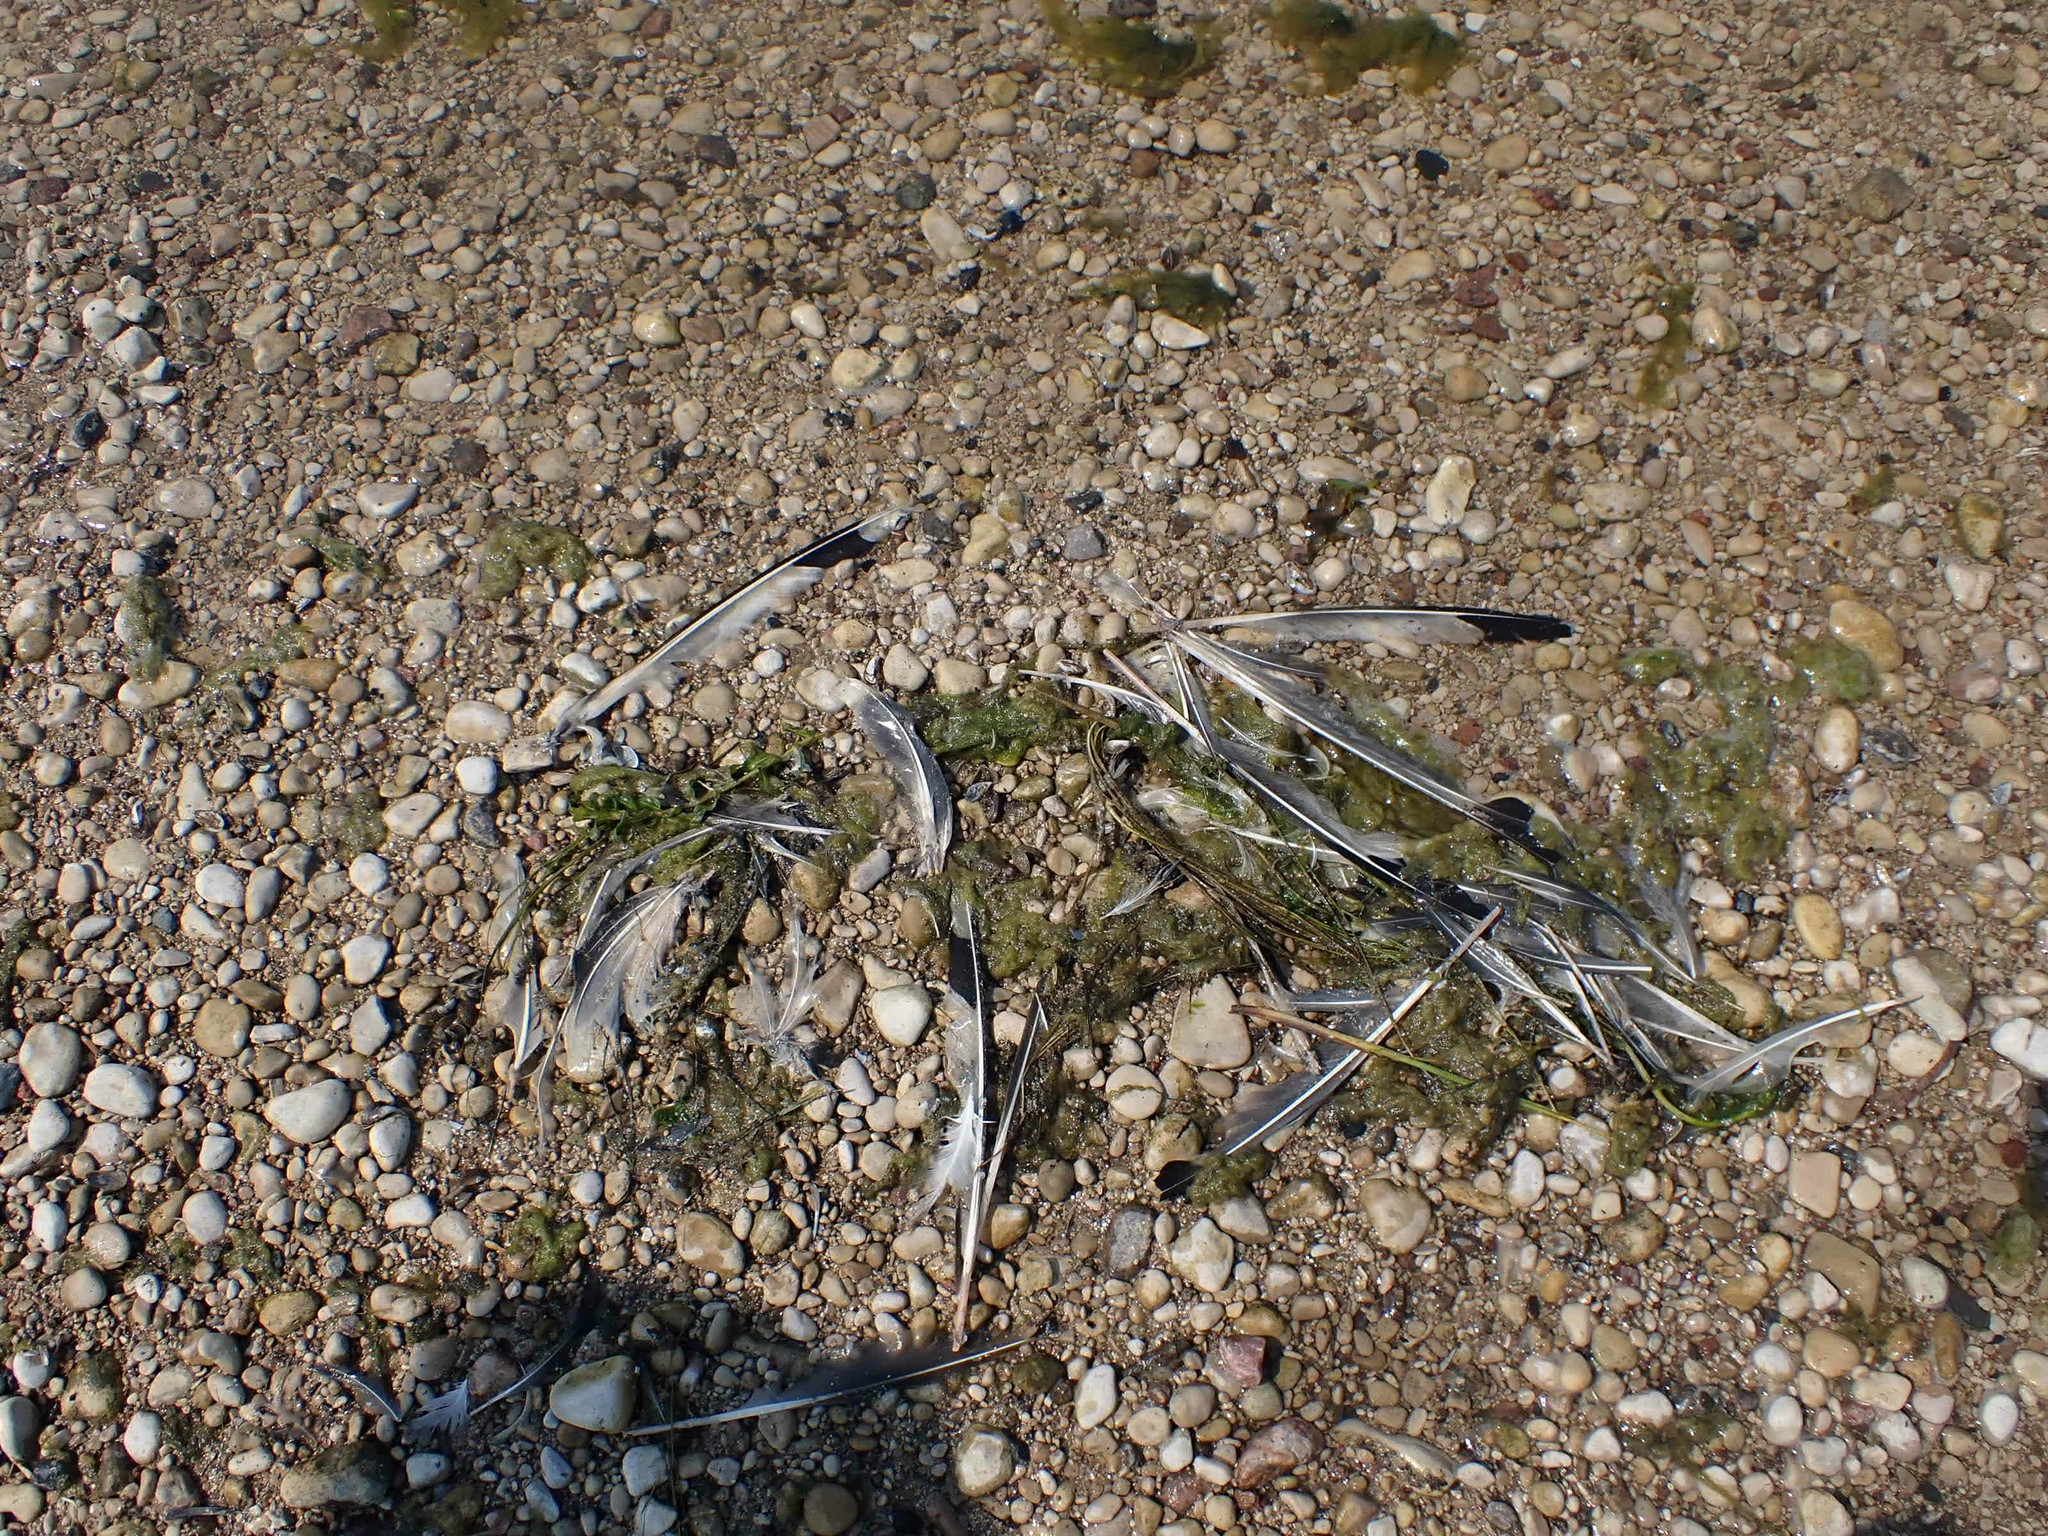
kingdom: Animalia
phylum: Chordata
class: Aves
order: Charadriiformes
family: Laridae
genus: Leucophaeus
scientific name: Leucophaeus pipixcan
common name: Franklin's gull
